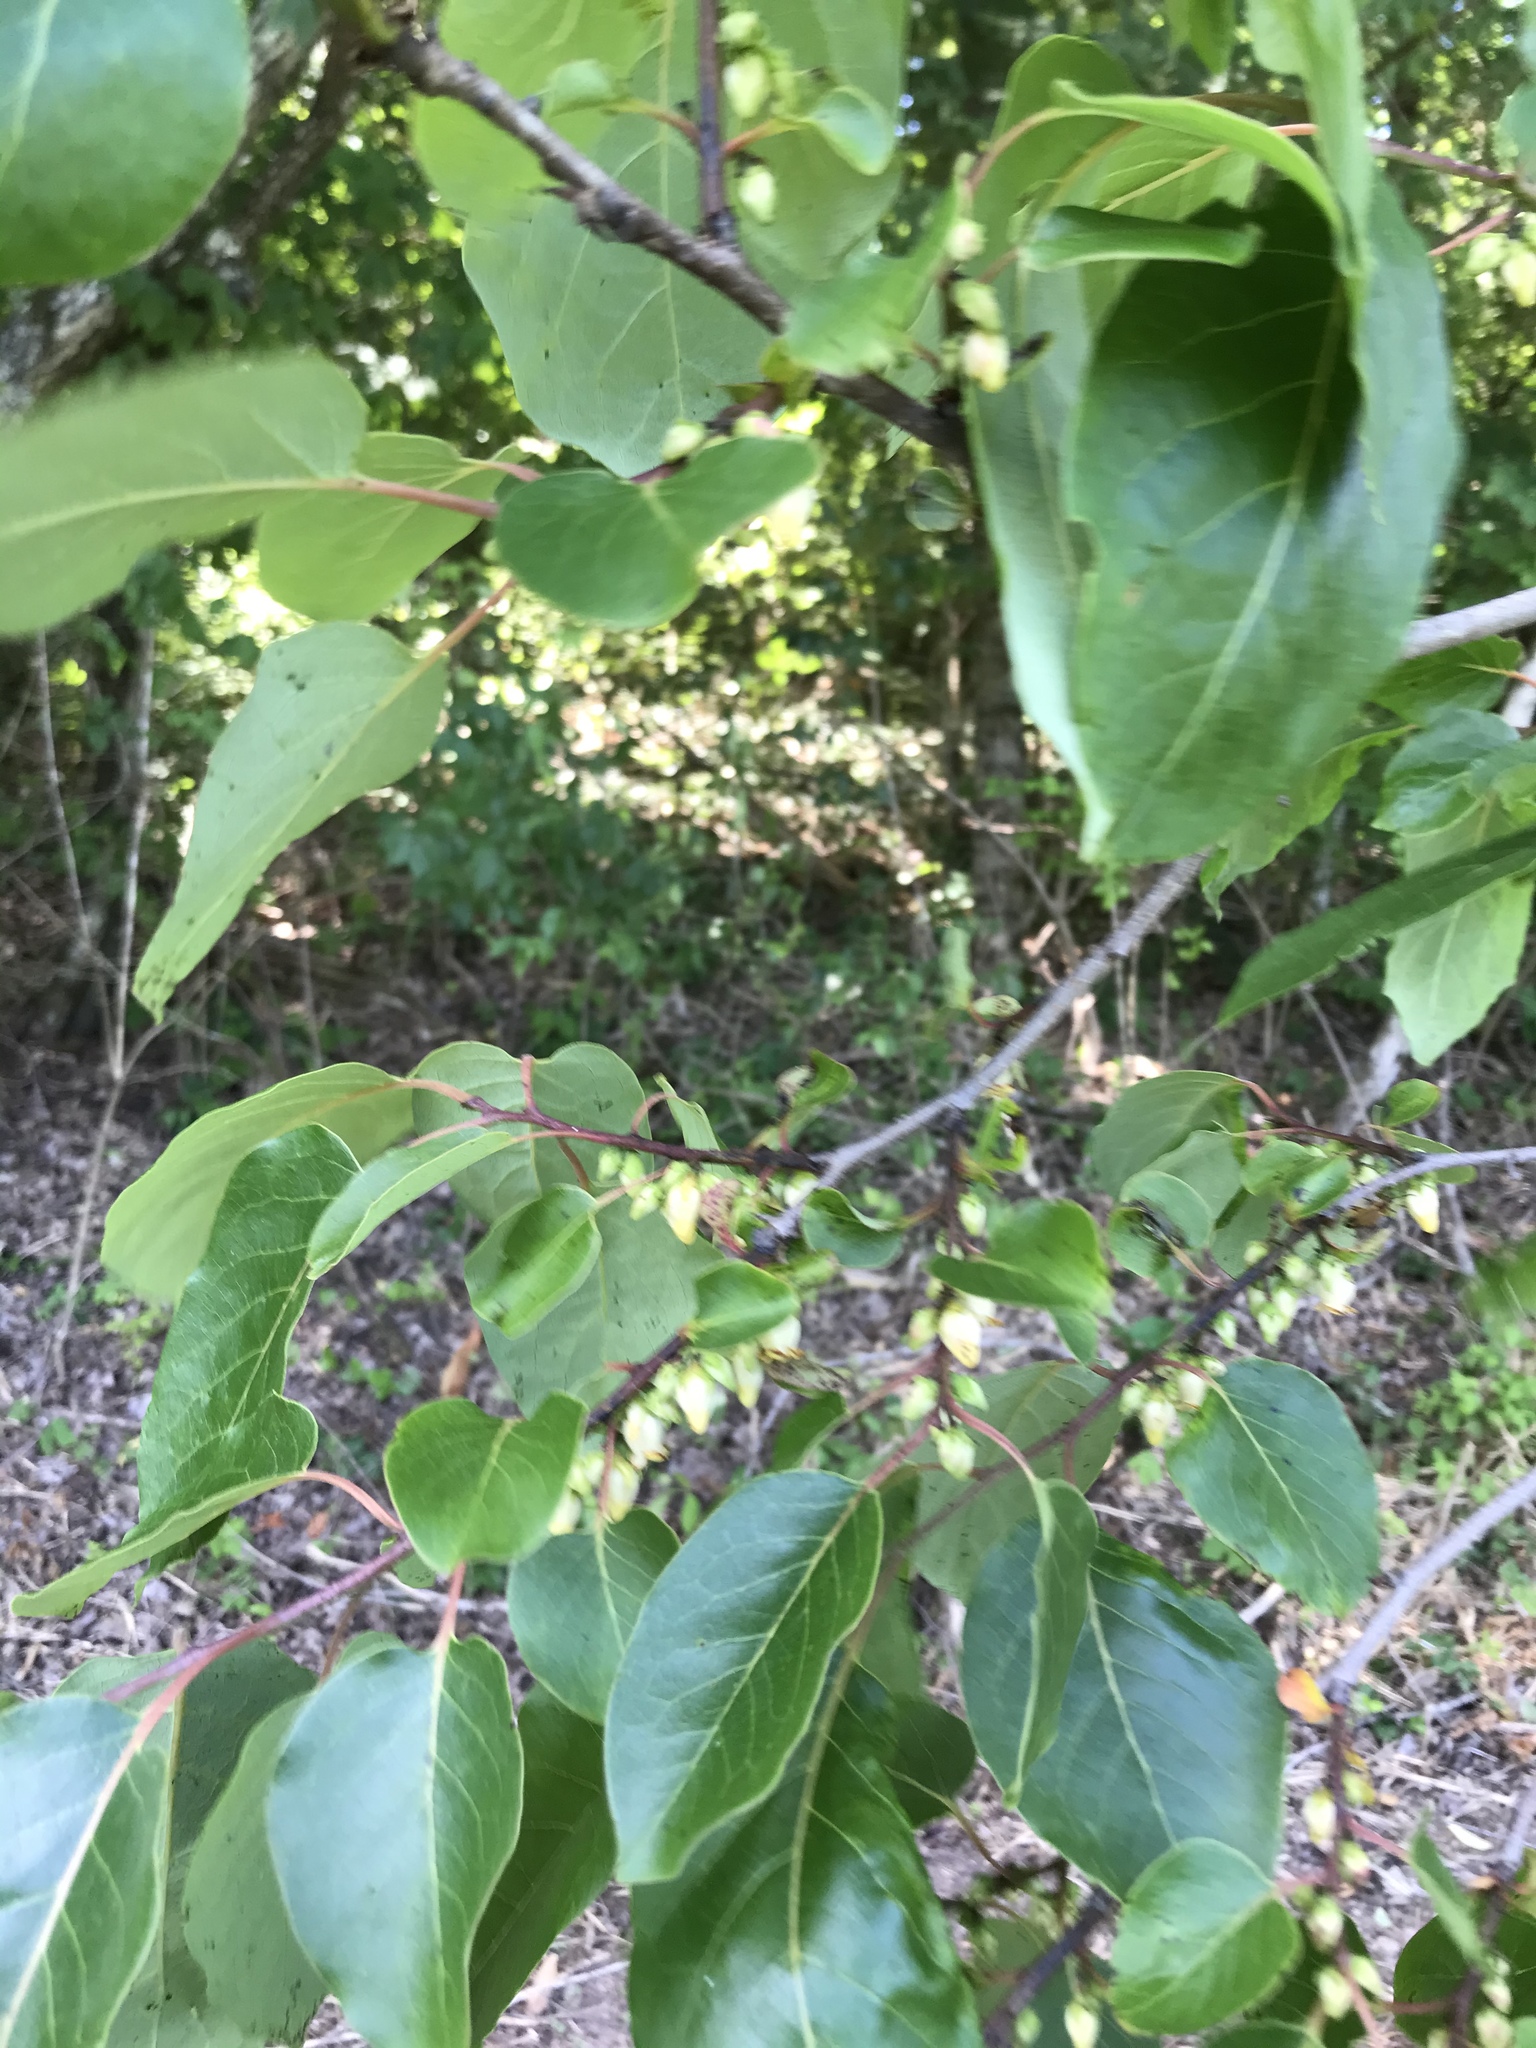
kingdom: Plantae
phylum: Tracheophyta
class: Magnoliopsida
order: Ericales
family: Ebenaceae
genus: Diospyros
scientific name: Diospyros virginiana
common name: Persimmon
